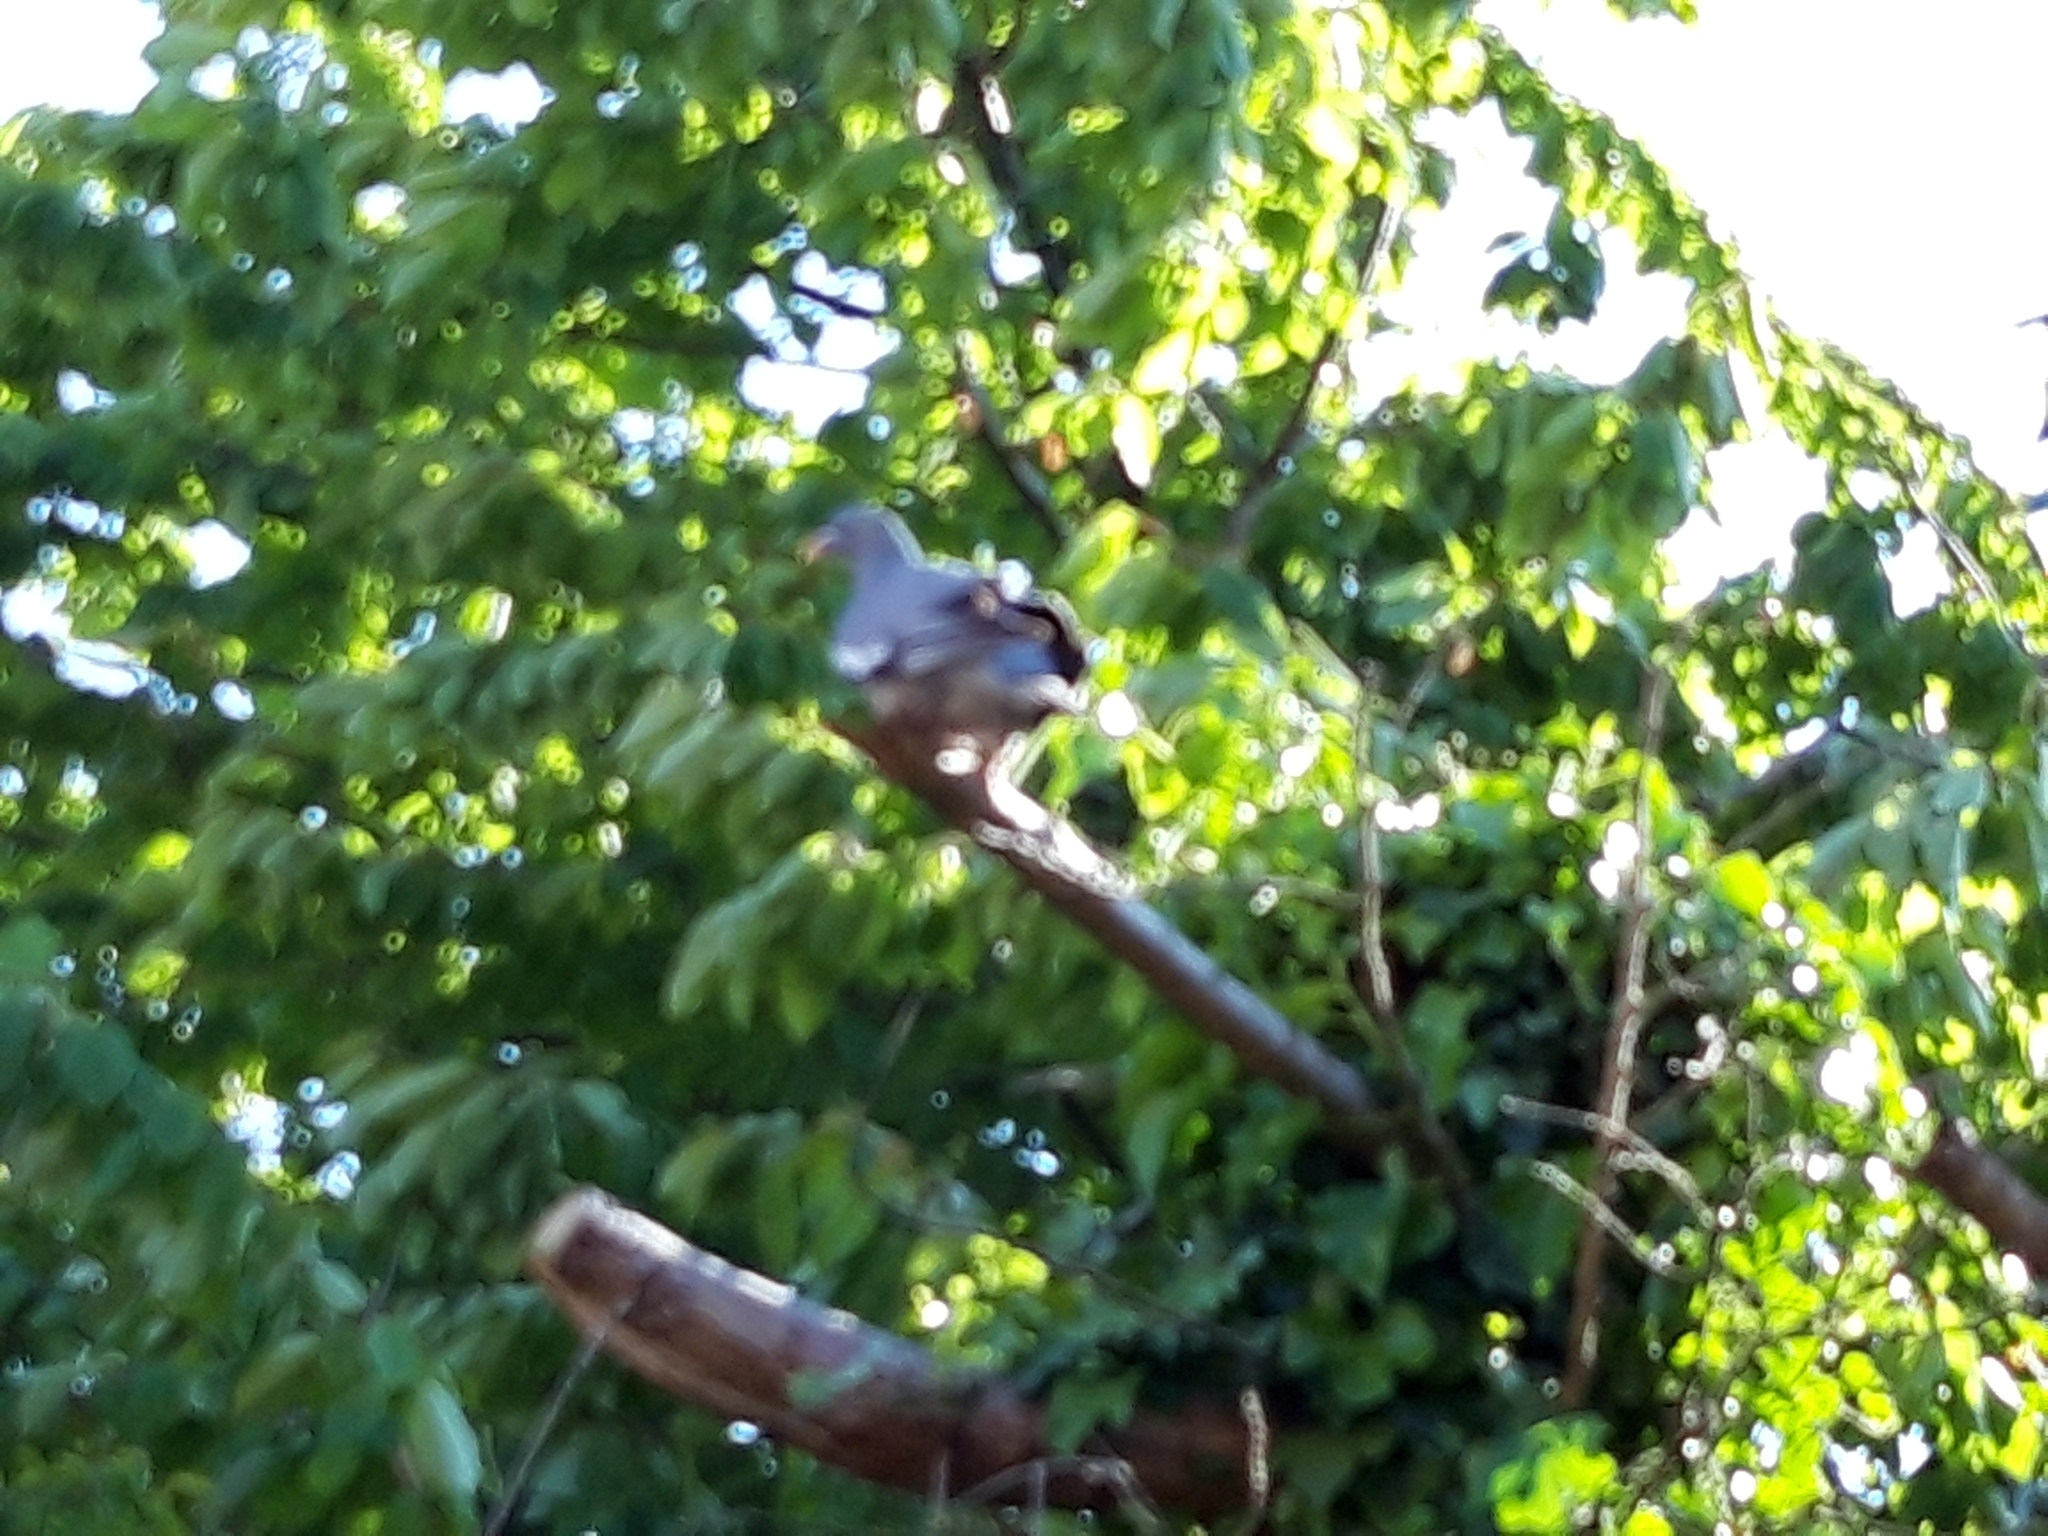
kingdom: Animalia
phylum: Chordata
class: Aves
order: Columbiformes
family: Columbidae
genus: Columba
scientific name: Columba palumbus
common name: Common wood pigeon
